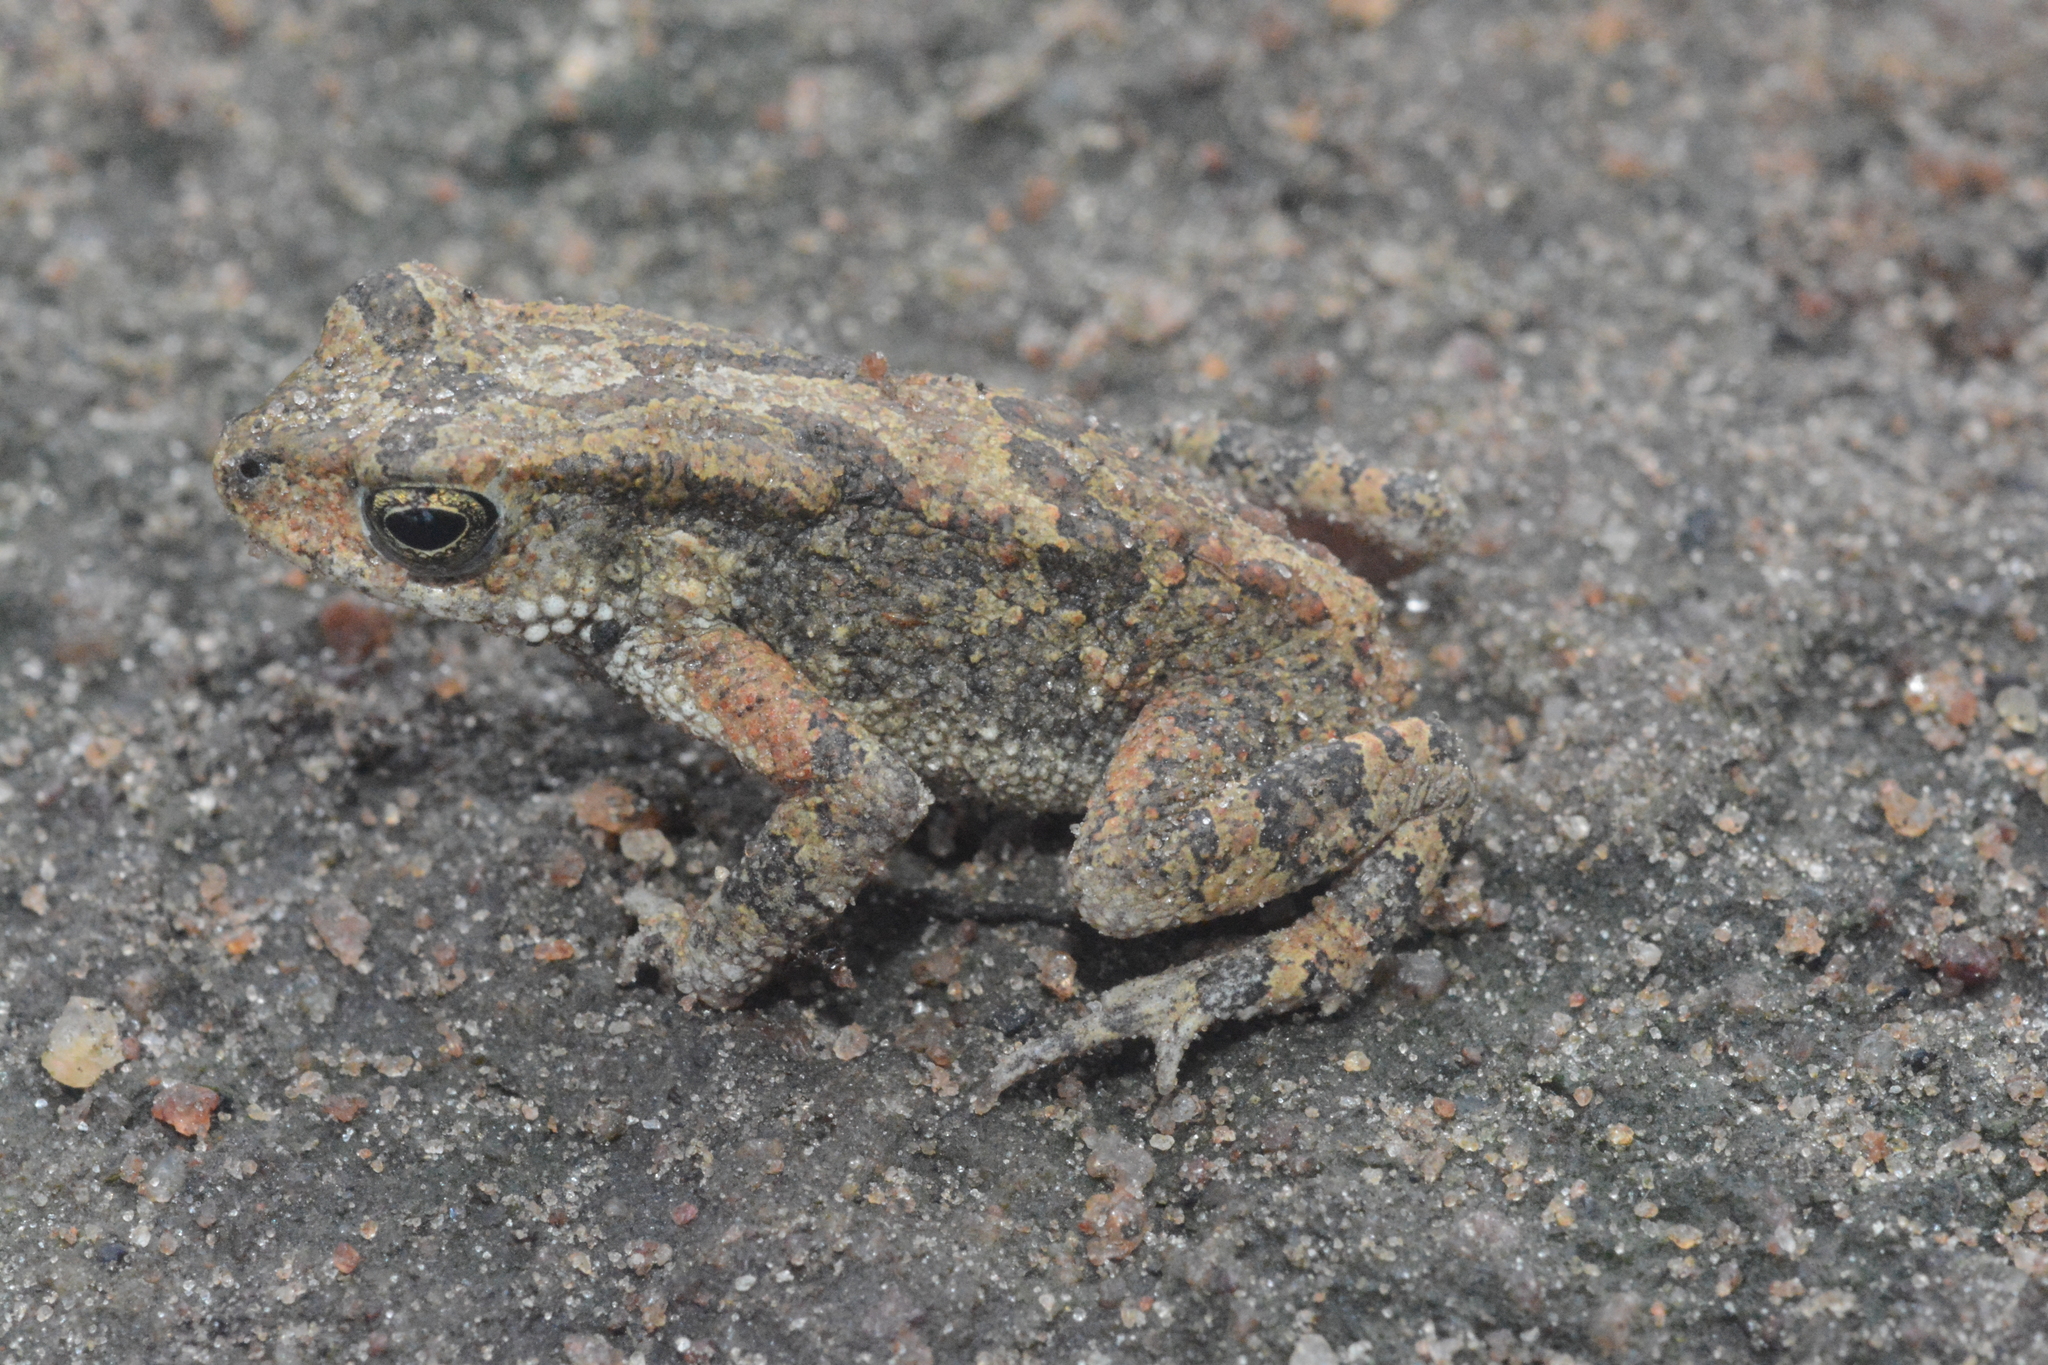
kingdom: Animalia
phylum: Chordata
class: Amphibia
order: Anura
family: Bufonidae
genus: Mertensophryne
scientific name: Mertensophryne taitana
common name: Teita toad
